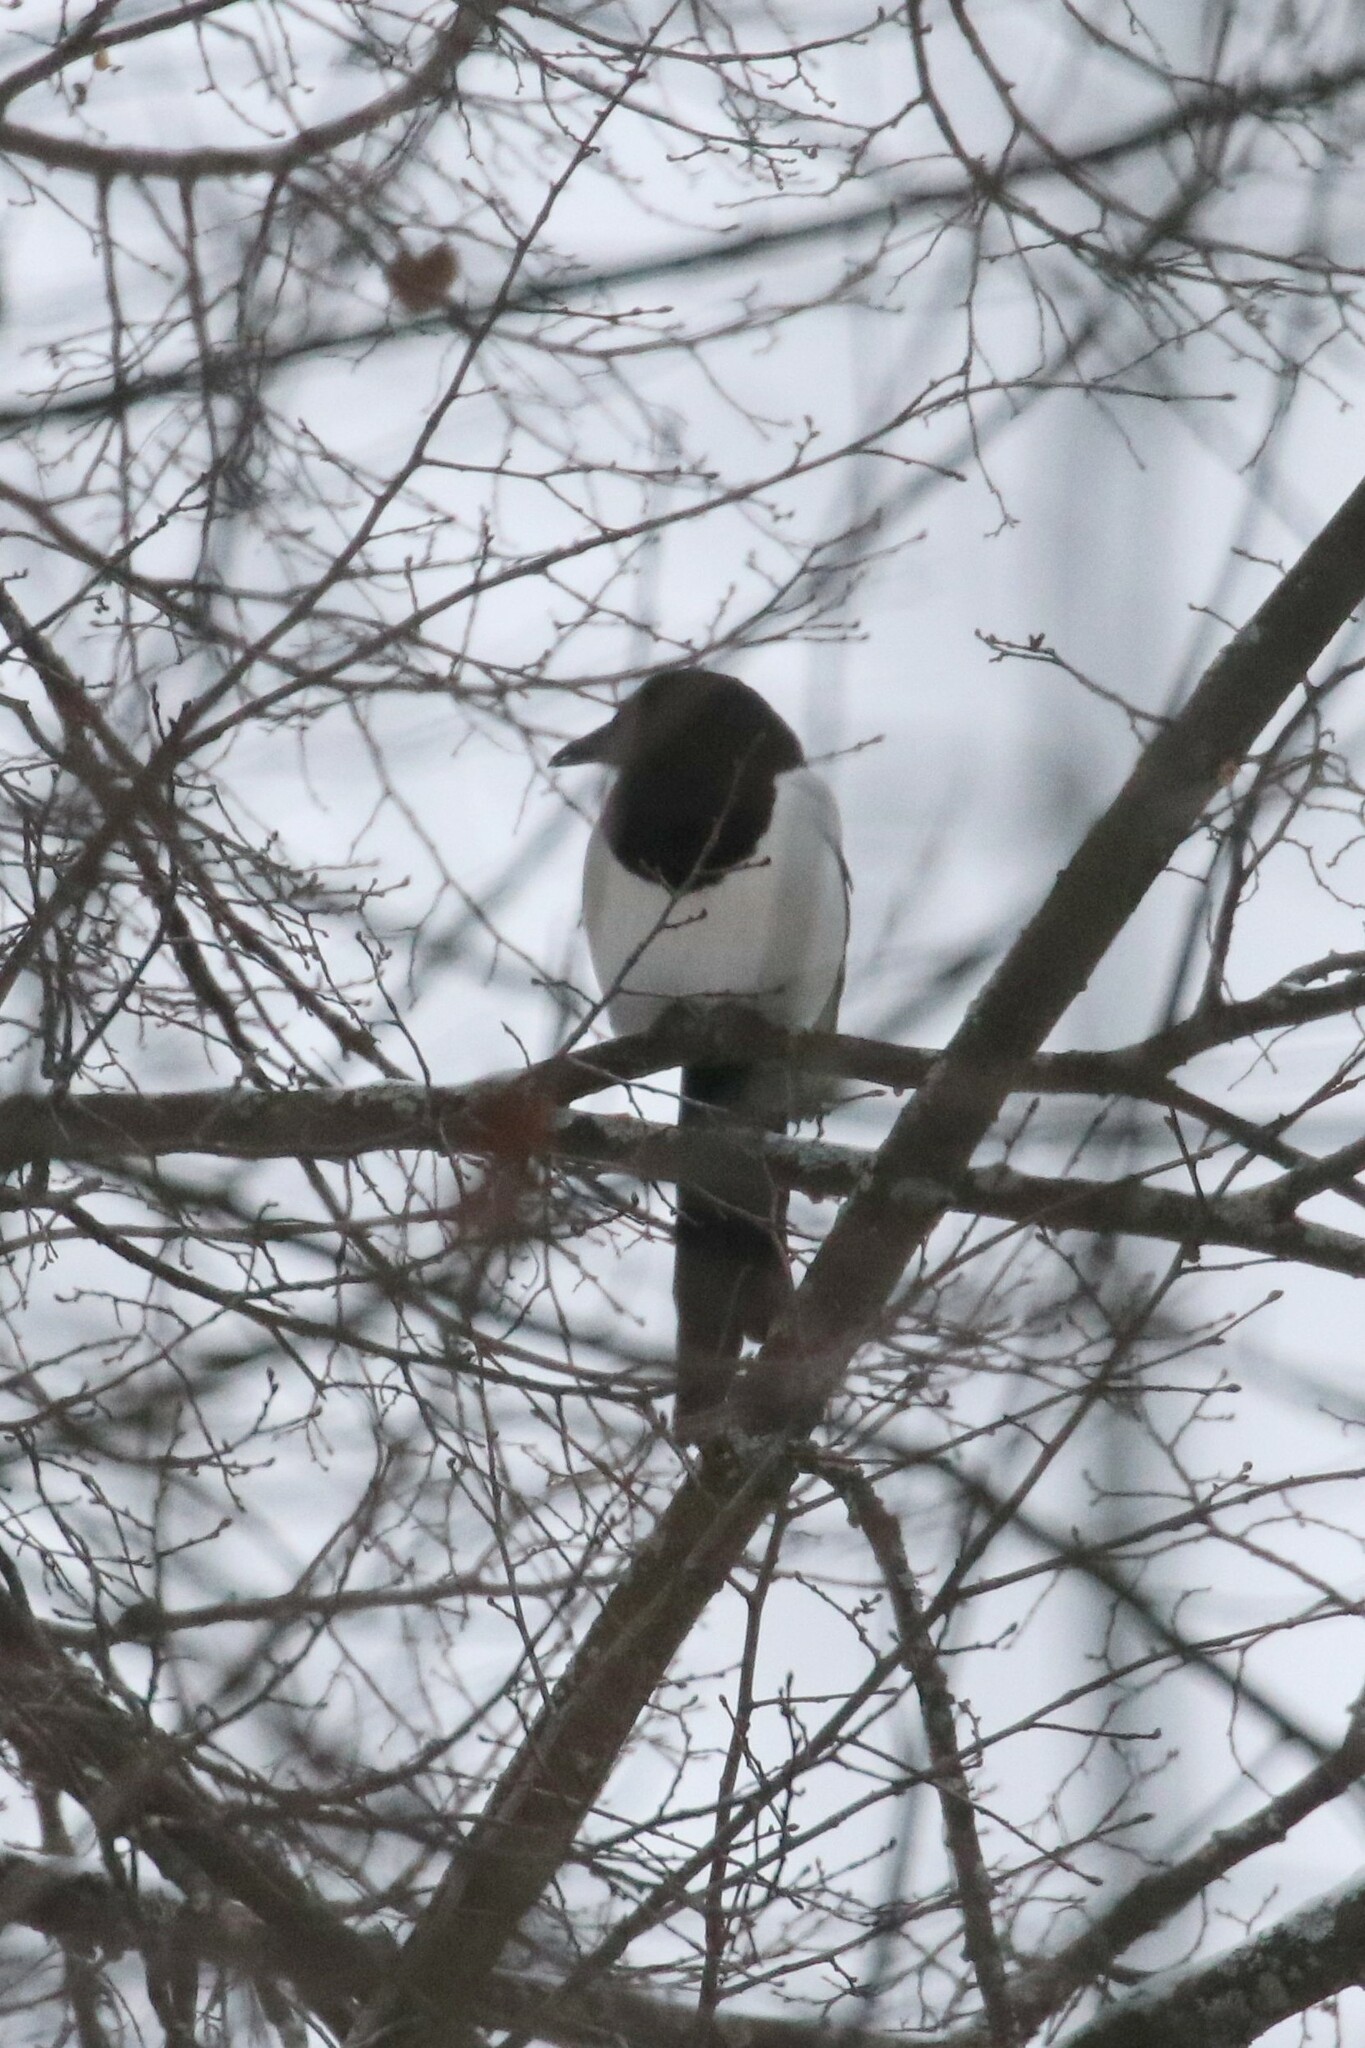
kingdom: Animalia
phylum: Chordata
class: Aves
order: Passeriformes
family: Corvidae
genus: Pica
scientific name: Pica pica
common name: Eurasian magpie
